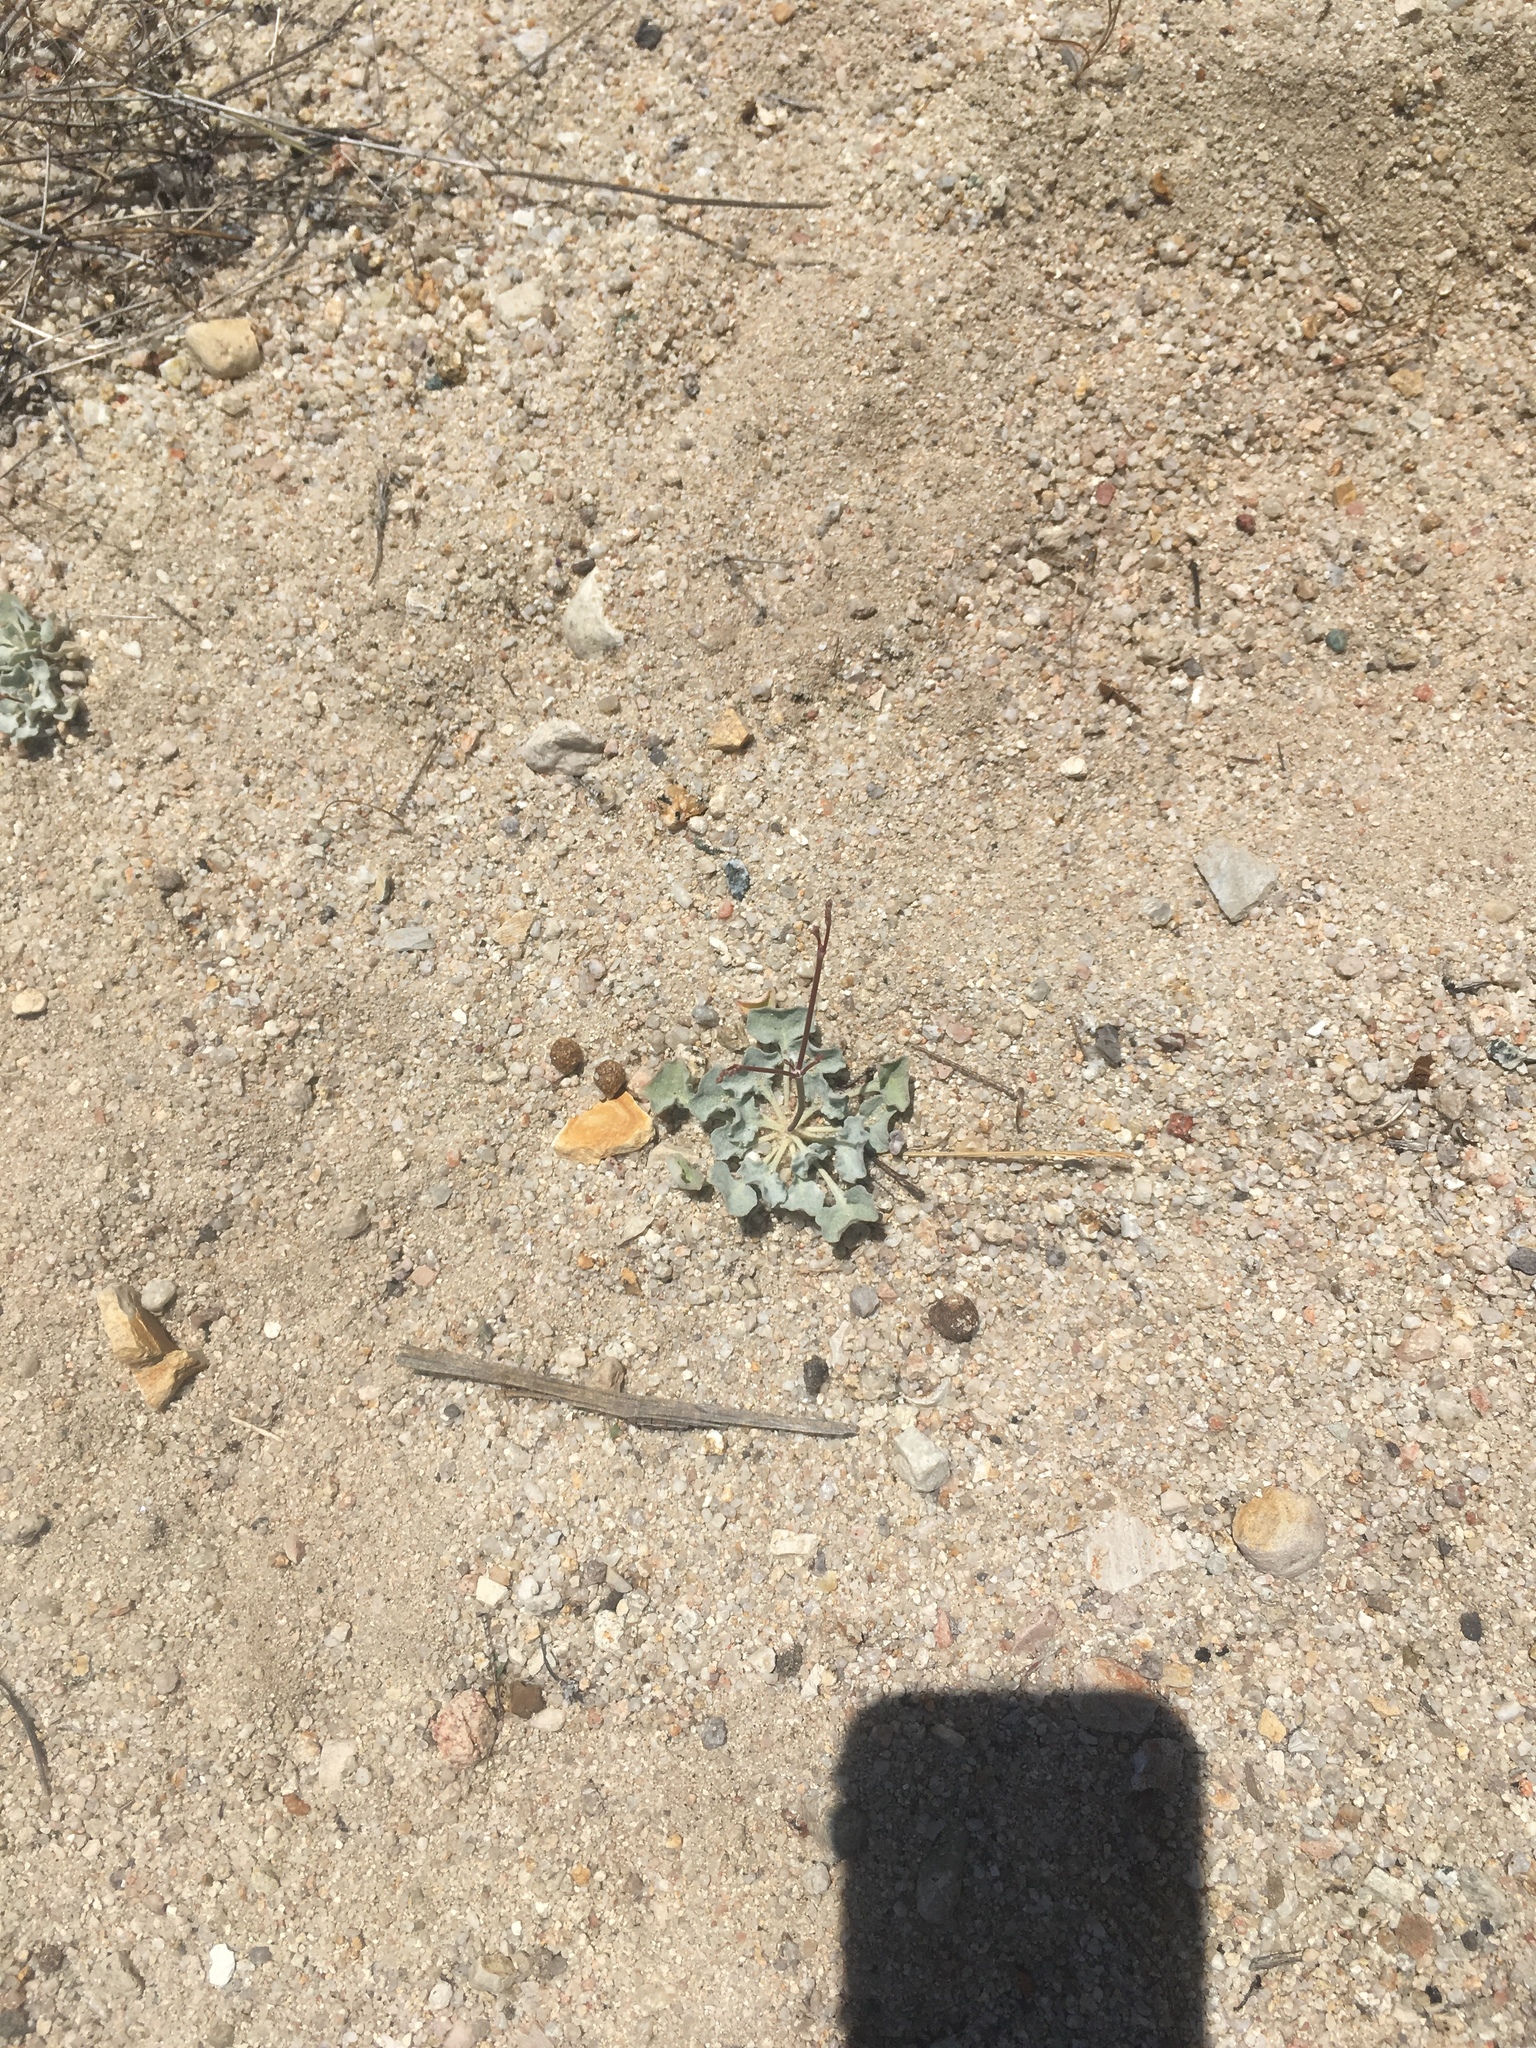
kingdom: Plantae
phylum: Tracheophyta
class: Magnoliopsida
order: Caryophyllales
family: Polygonaceae
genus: Eriogonum
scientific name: Eriogonum elegans
